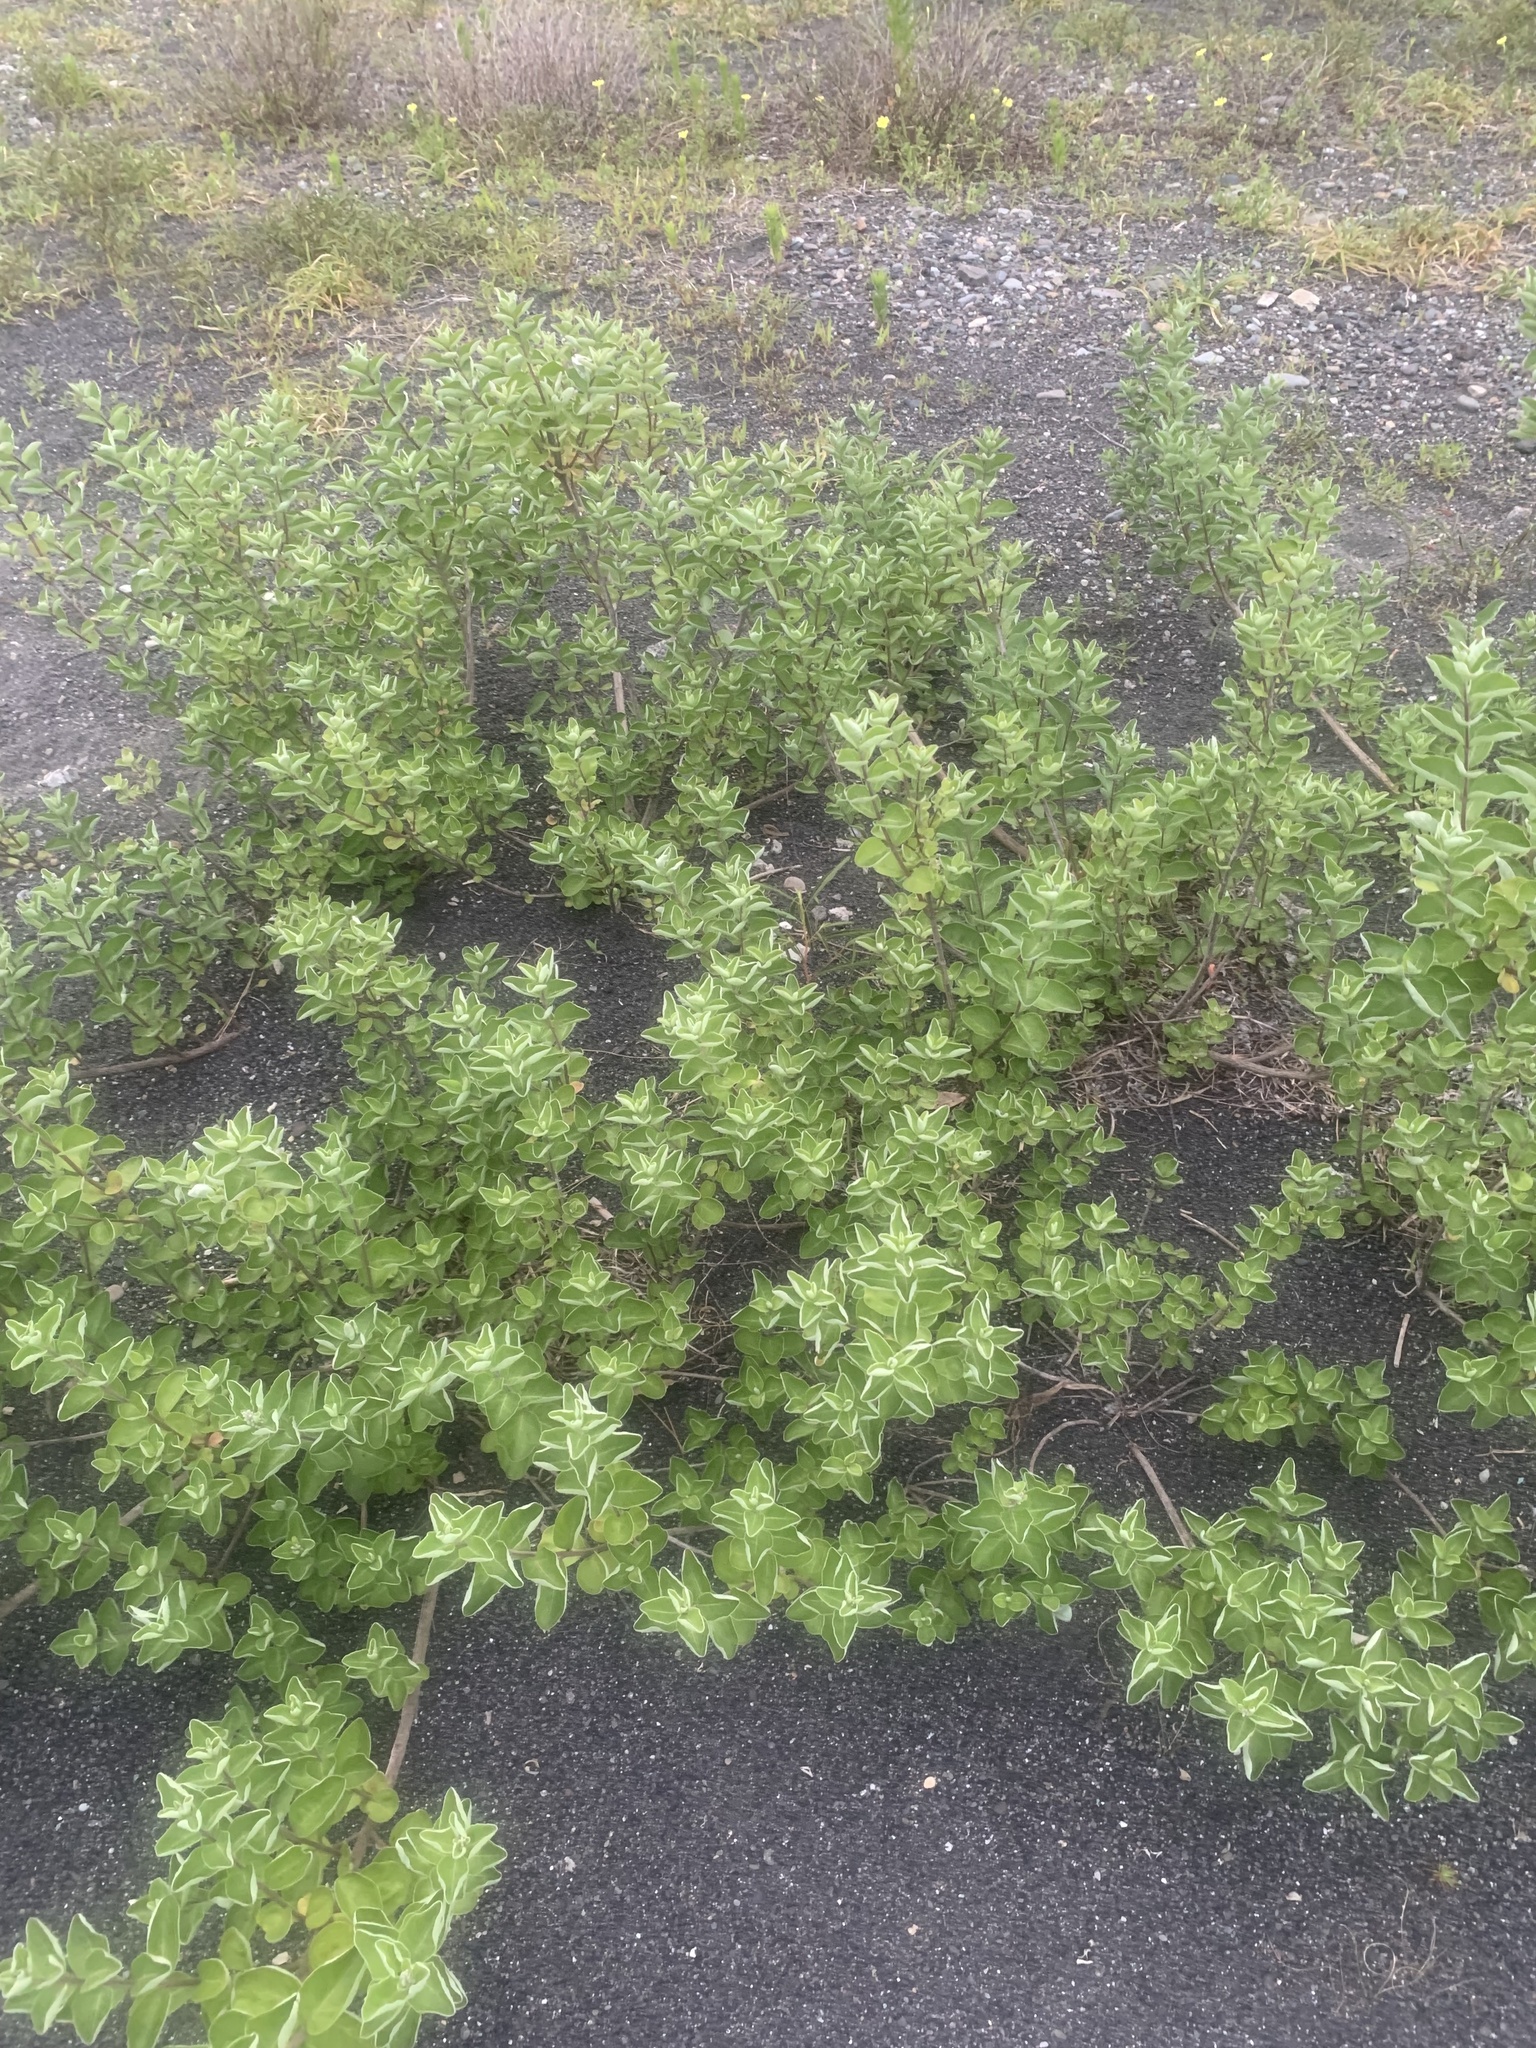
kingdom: Plantae
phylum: Tracheophyta
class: Magnoliopsida
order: Lamiales
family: Lamiaceae
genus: Vitex
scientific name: Vitex rotundifolia
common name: Beach vitex
